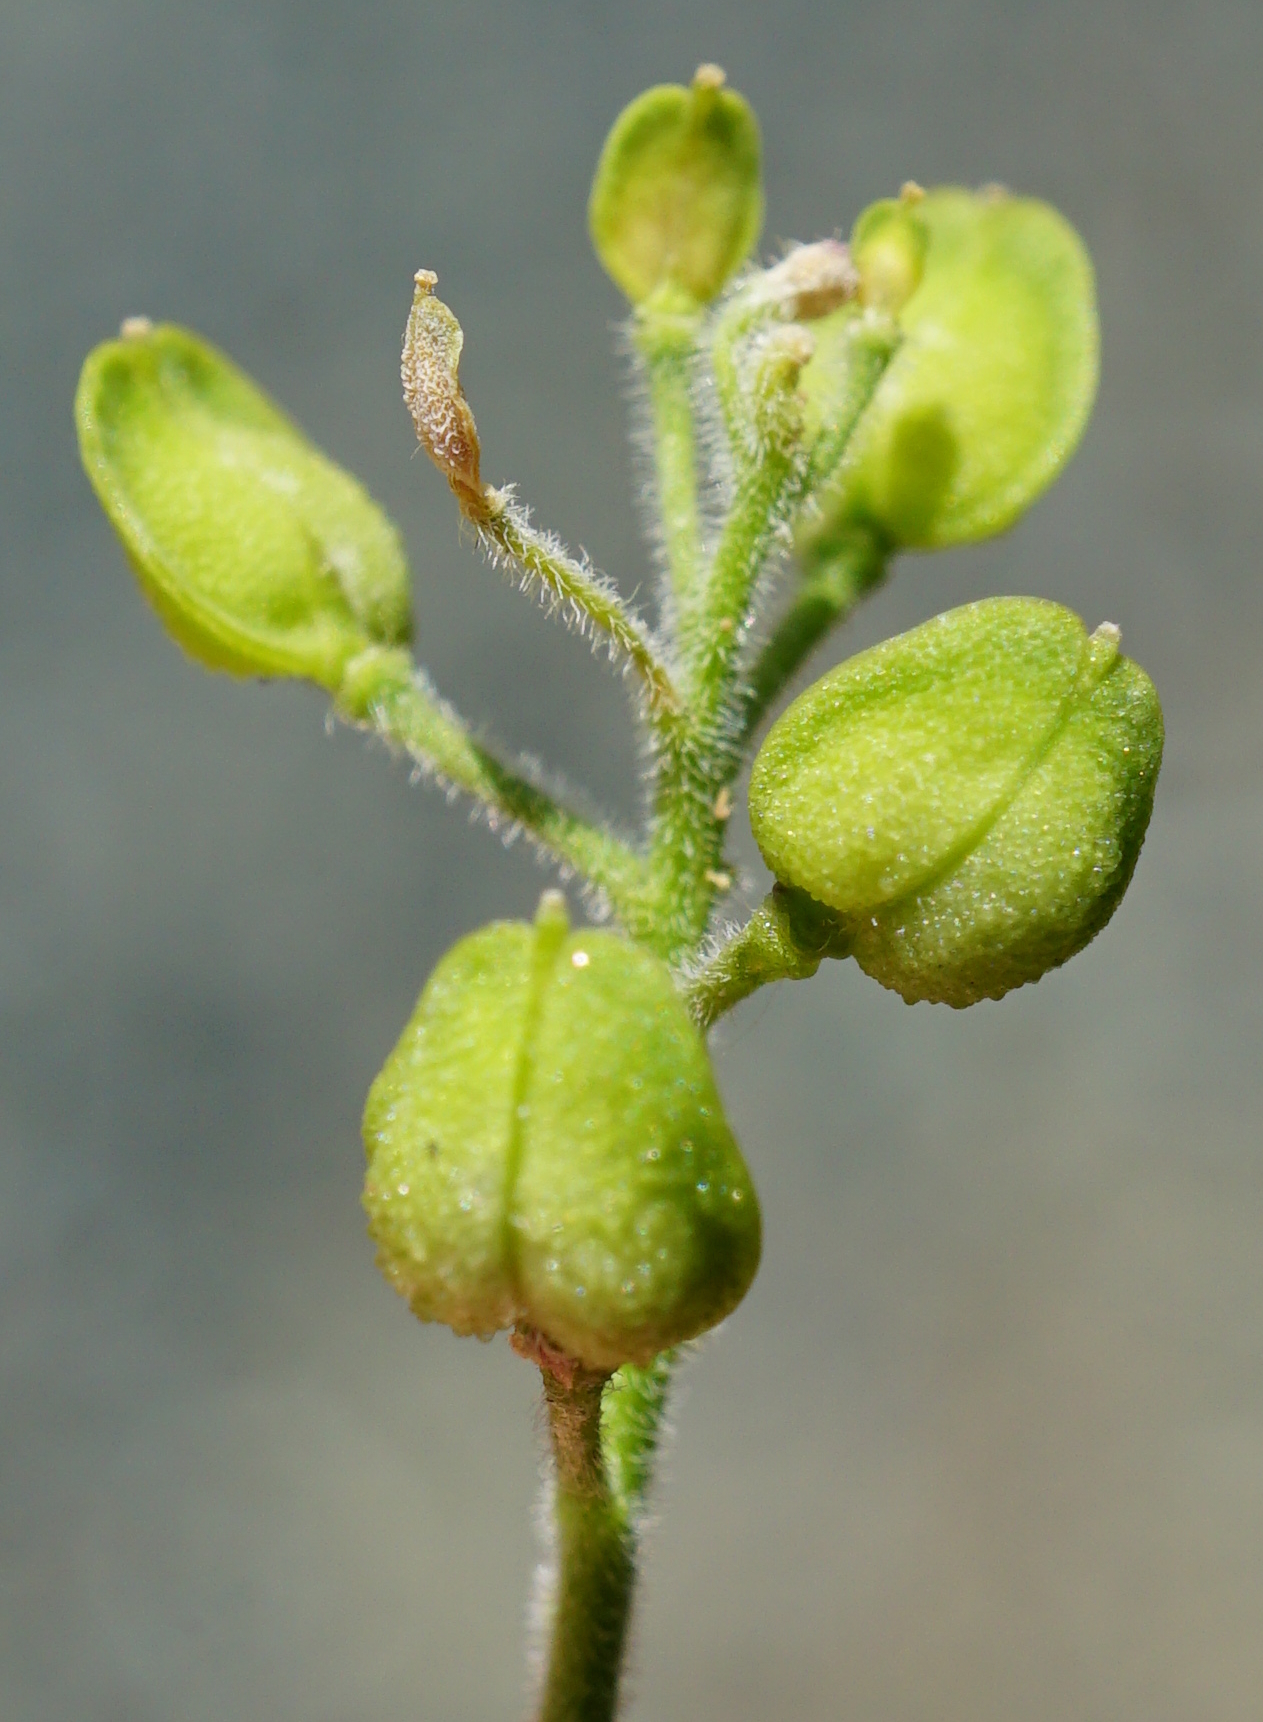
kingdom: Plantae
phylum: Tracheophyta
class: Magnoliopsida
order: Brassicales
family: Brassicaceae
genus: Lepidium
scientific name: Lepidium campestre
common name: Field pepperwort
